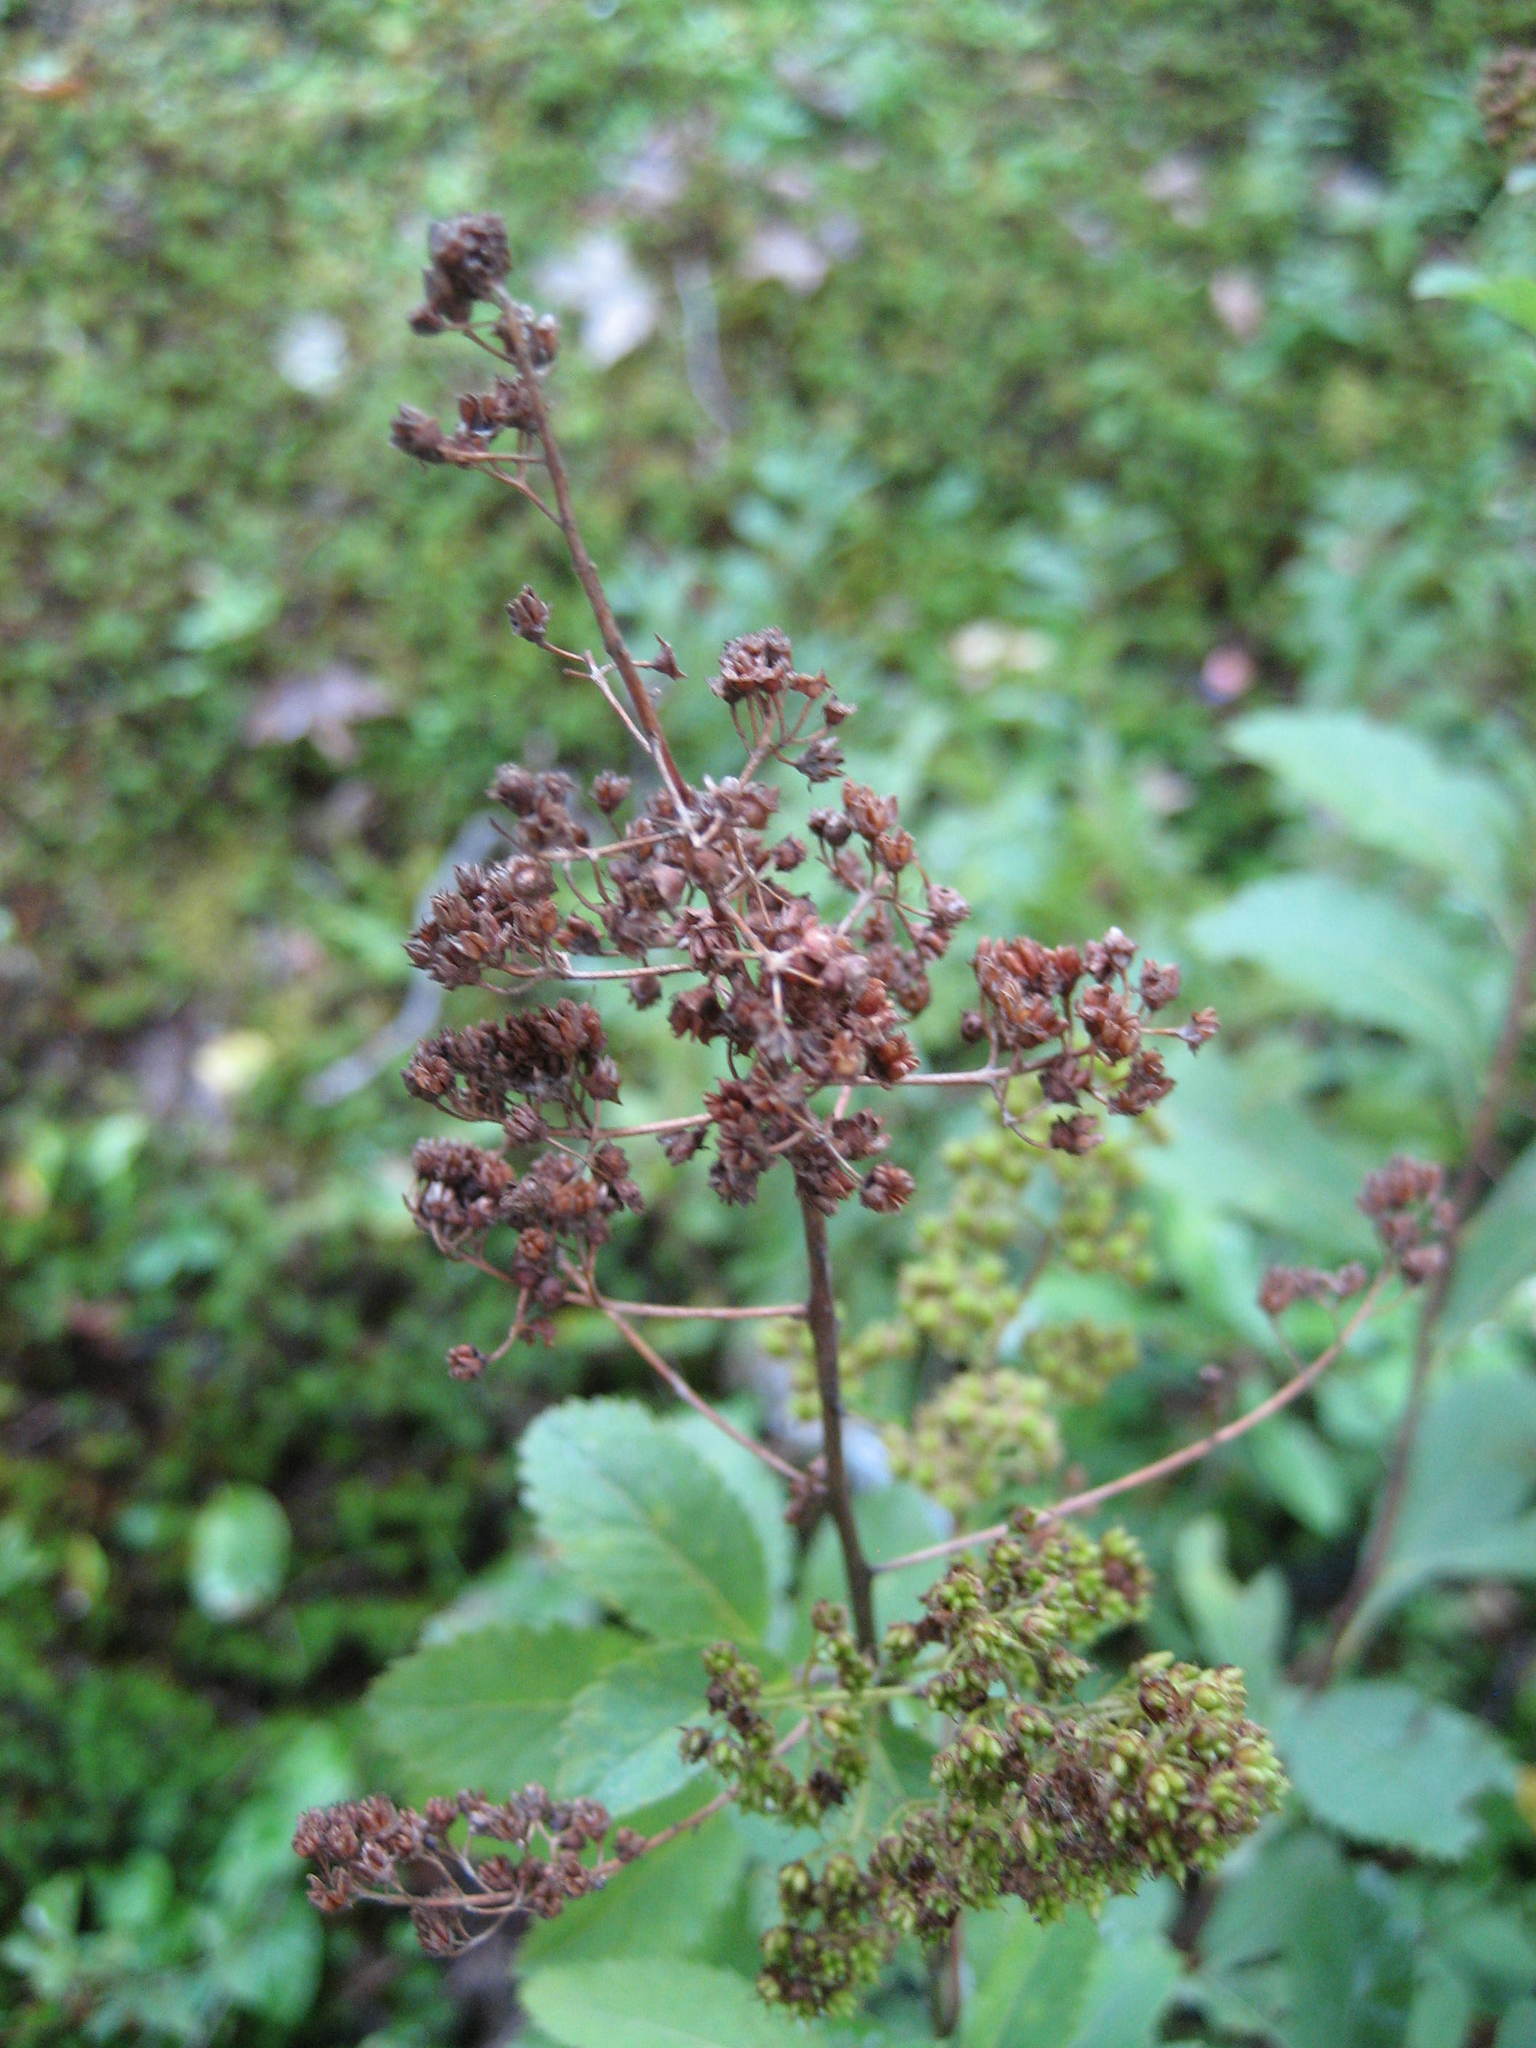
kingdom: Plantae
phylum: Tracheophyta
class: Magnoliopsida
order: Rosales
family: Rosaceae
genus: Spiraea
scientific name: Spiraea alba
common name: Pale bridewort
